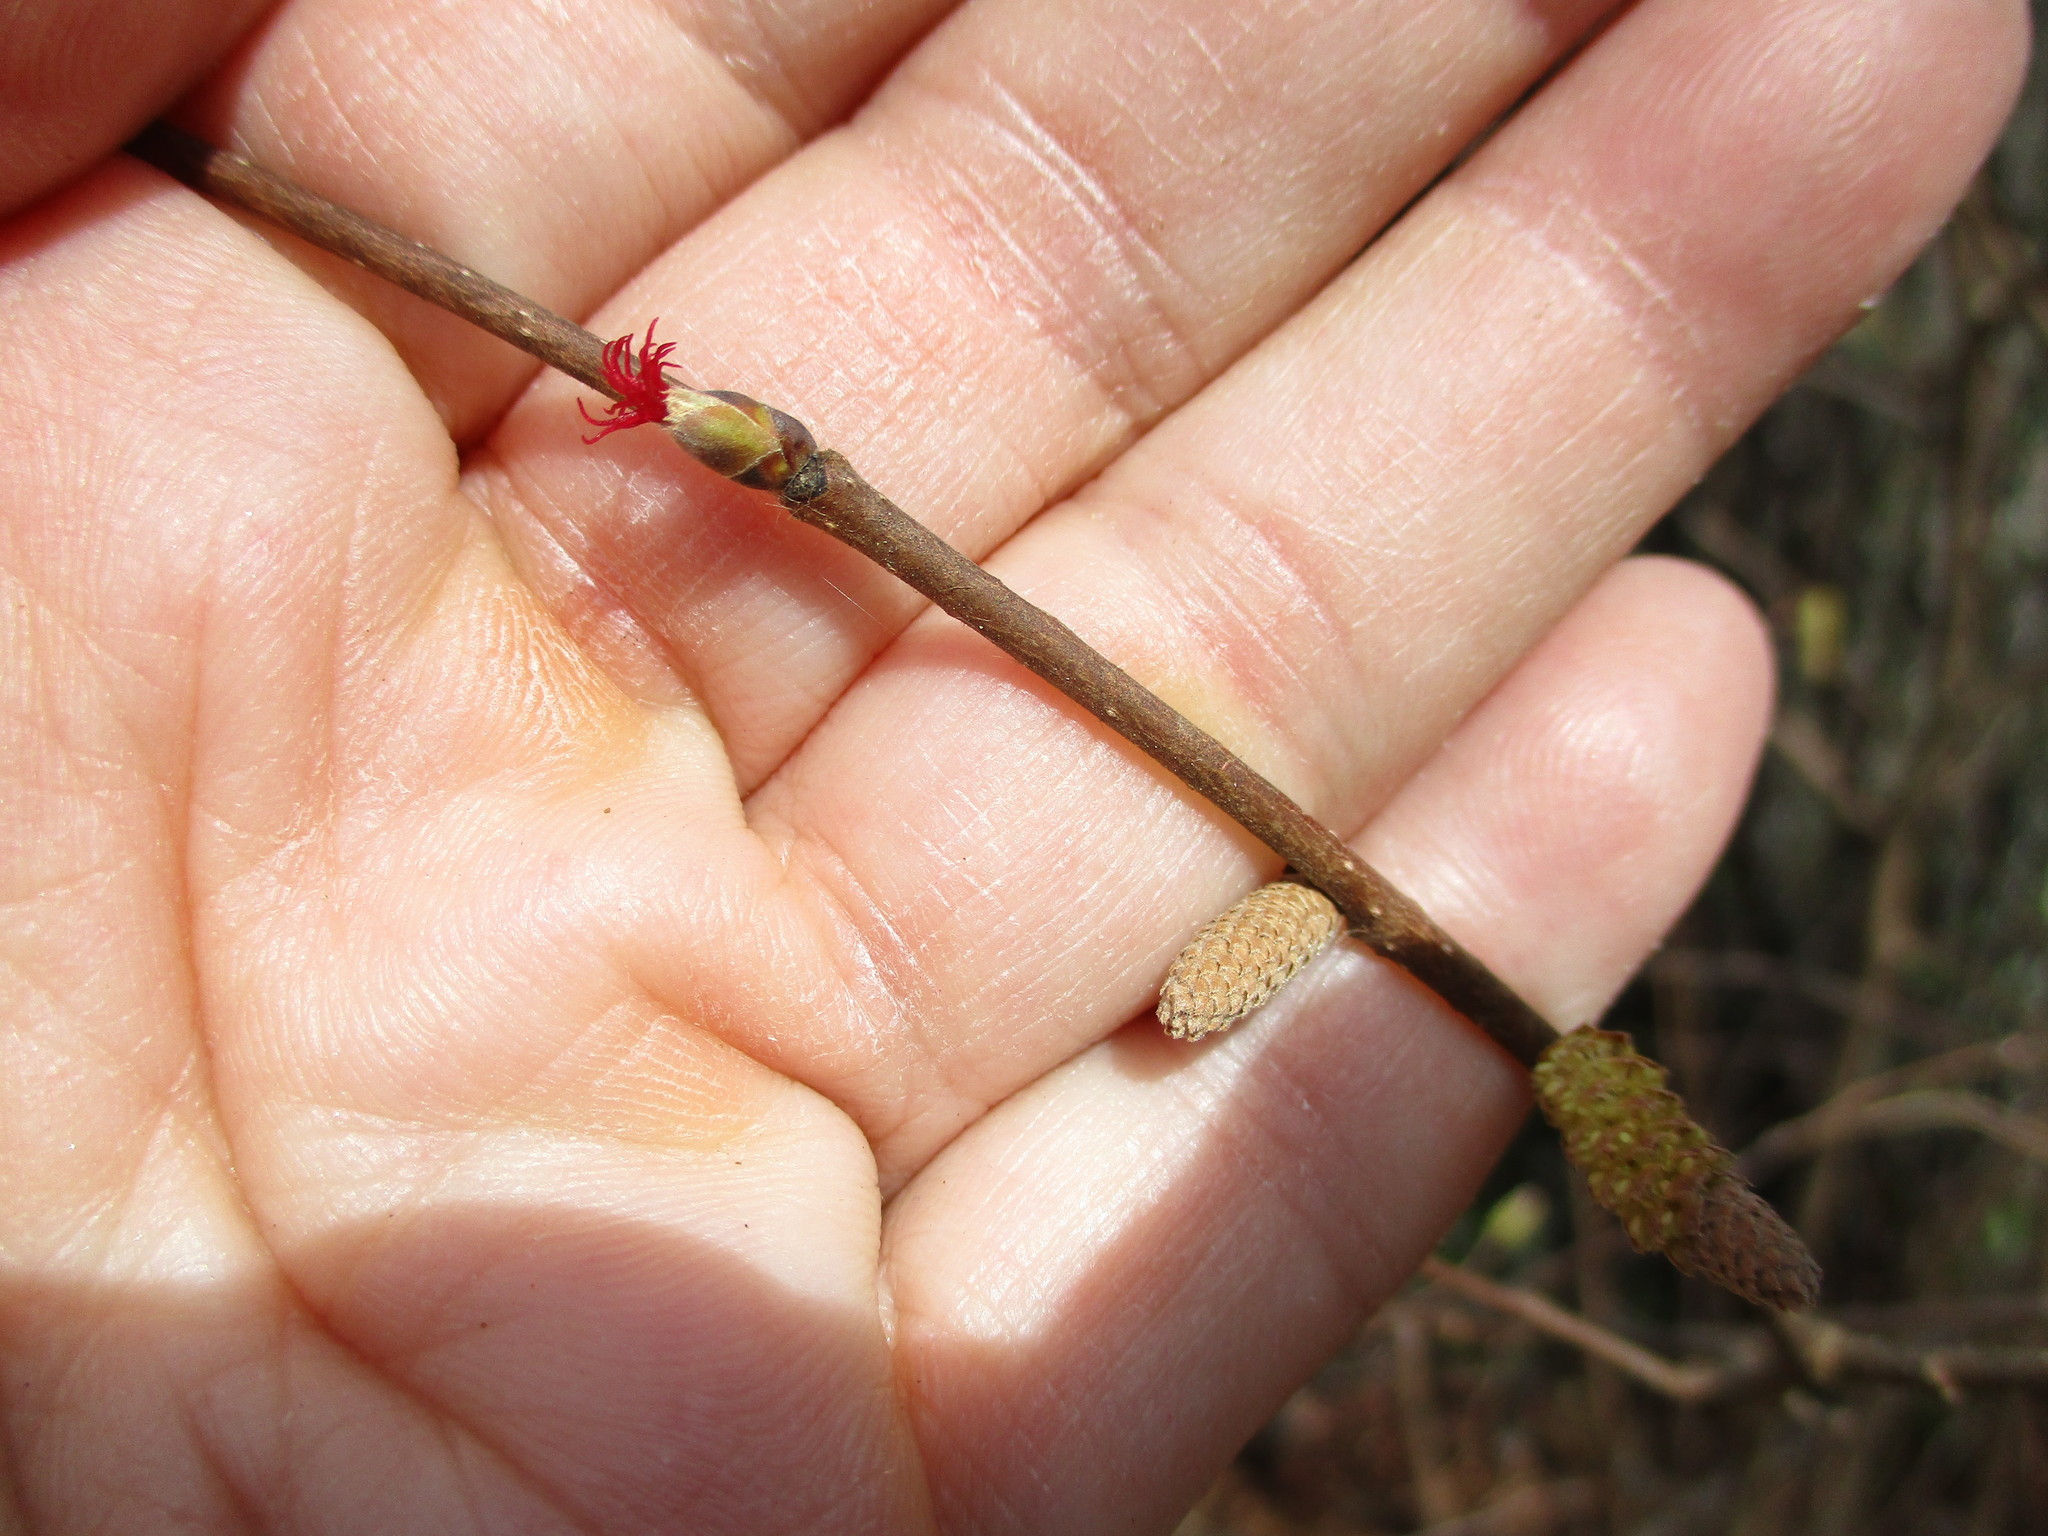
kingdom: Plantae
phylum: Tracheophyta
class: Magnoliopsida
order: Fagales
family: Betulaceae
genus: Corylus
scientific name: Corylus cornuta
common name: Beaked hazel
